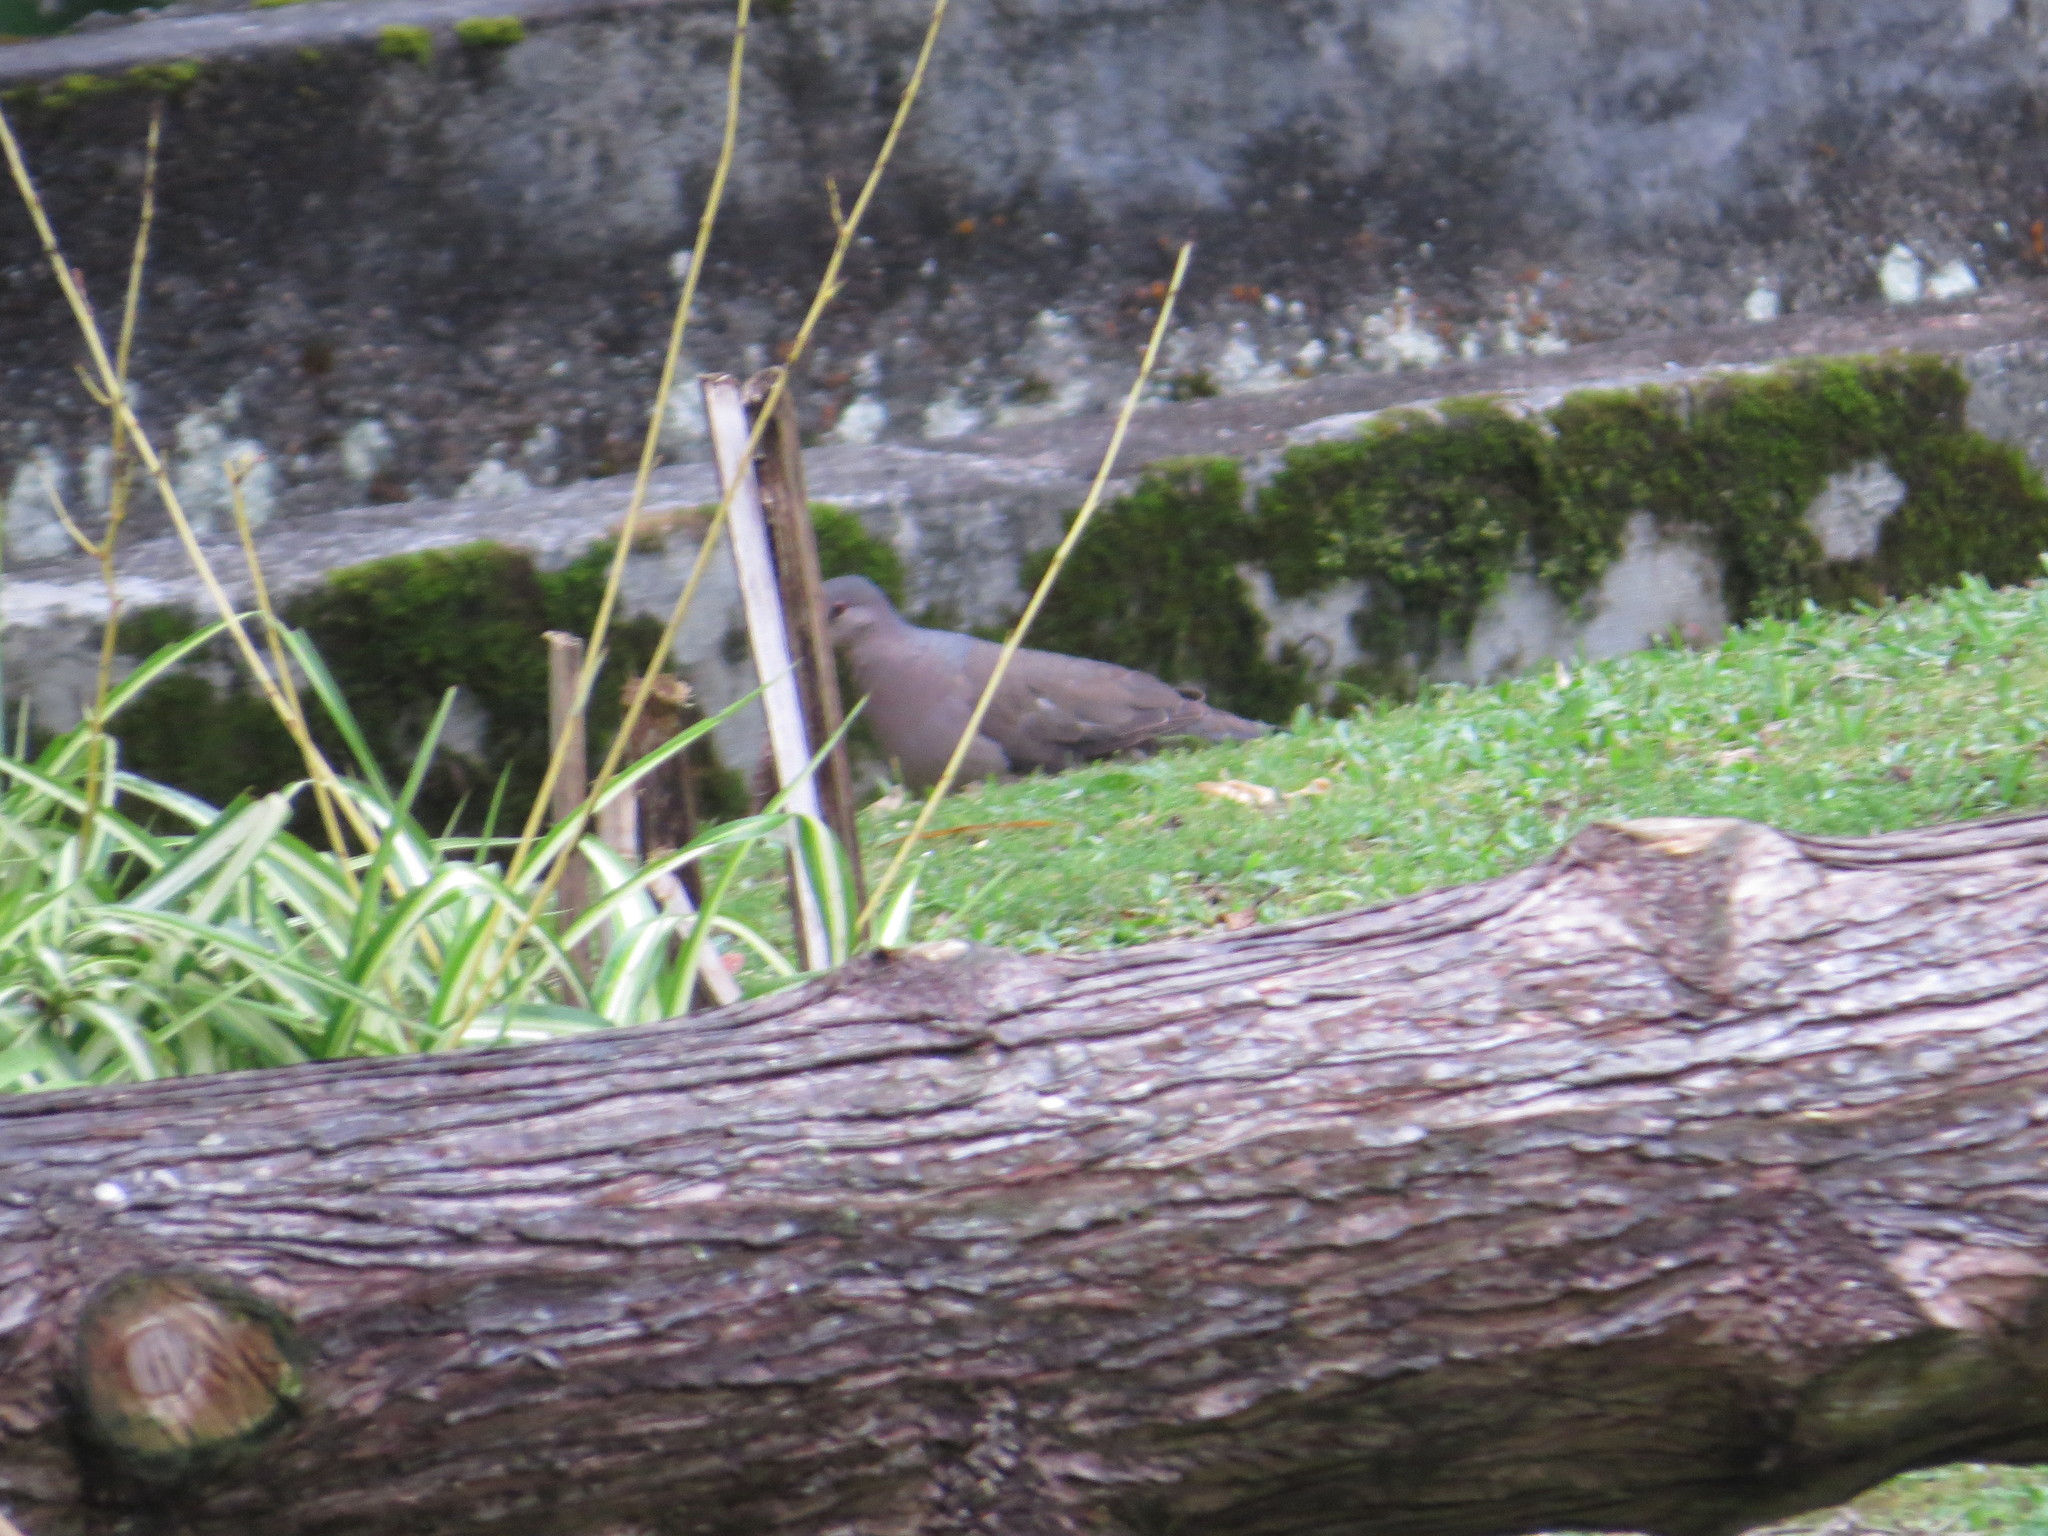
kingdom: Animalia
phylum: Chordata
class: Aves
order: Columbiformes
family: Columbidae
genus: Leptotila
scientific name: Leptotila verreauxi
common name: White-tipped dove
